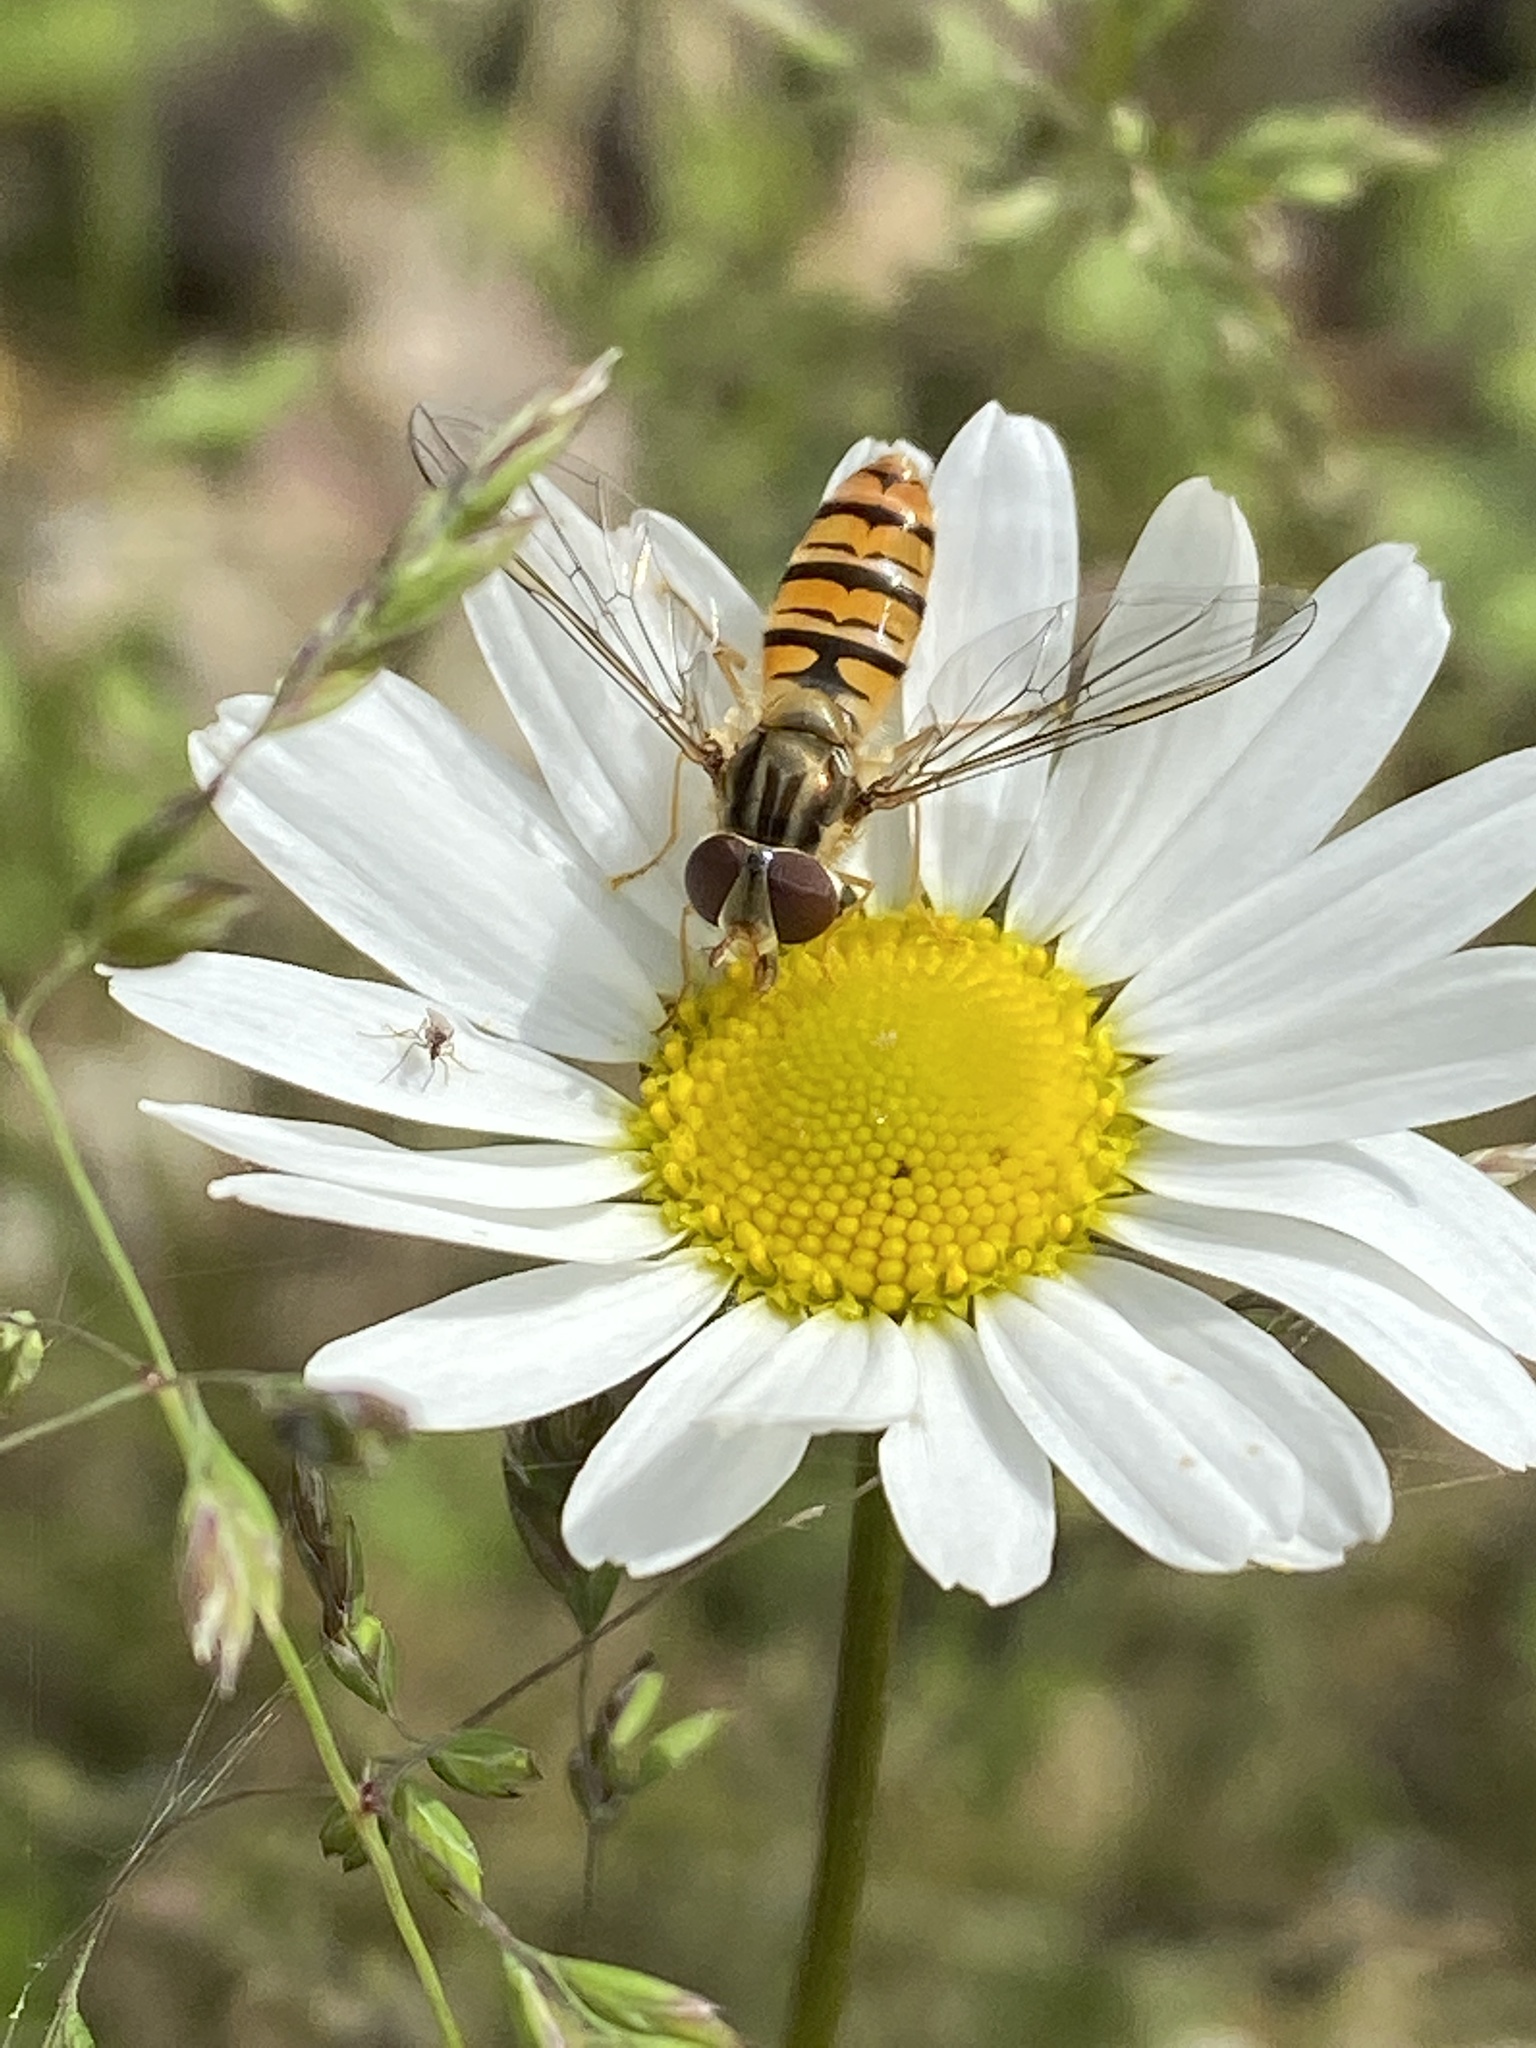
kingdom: Animalia
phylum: Arthropoda
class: Insecta
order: Diptera
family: Syrphidae
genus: Episyrphus
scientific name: Episyrphus balteatus
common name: Marmalade hoverfly
